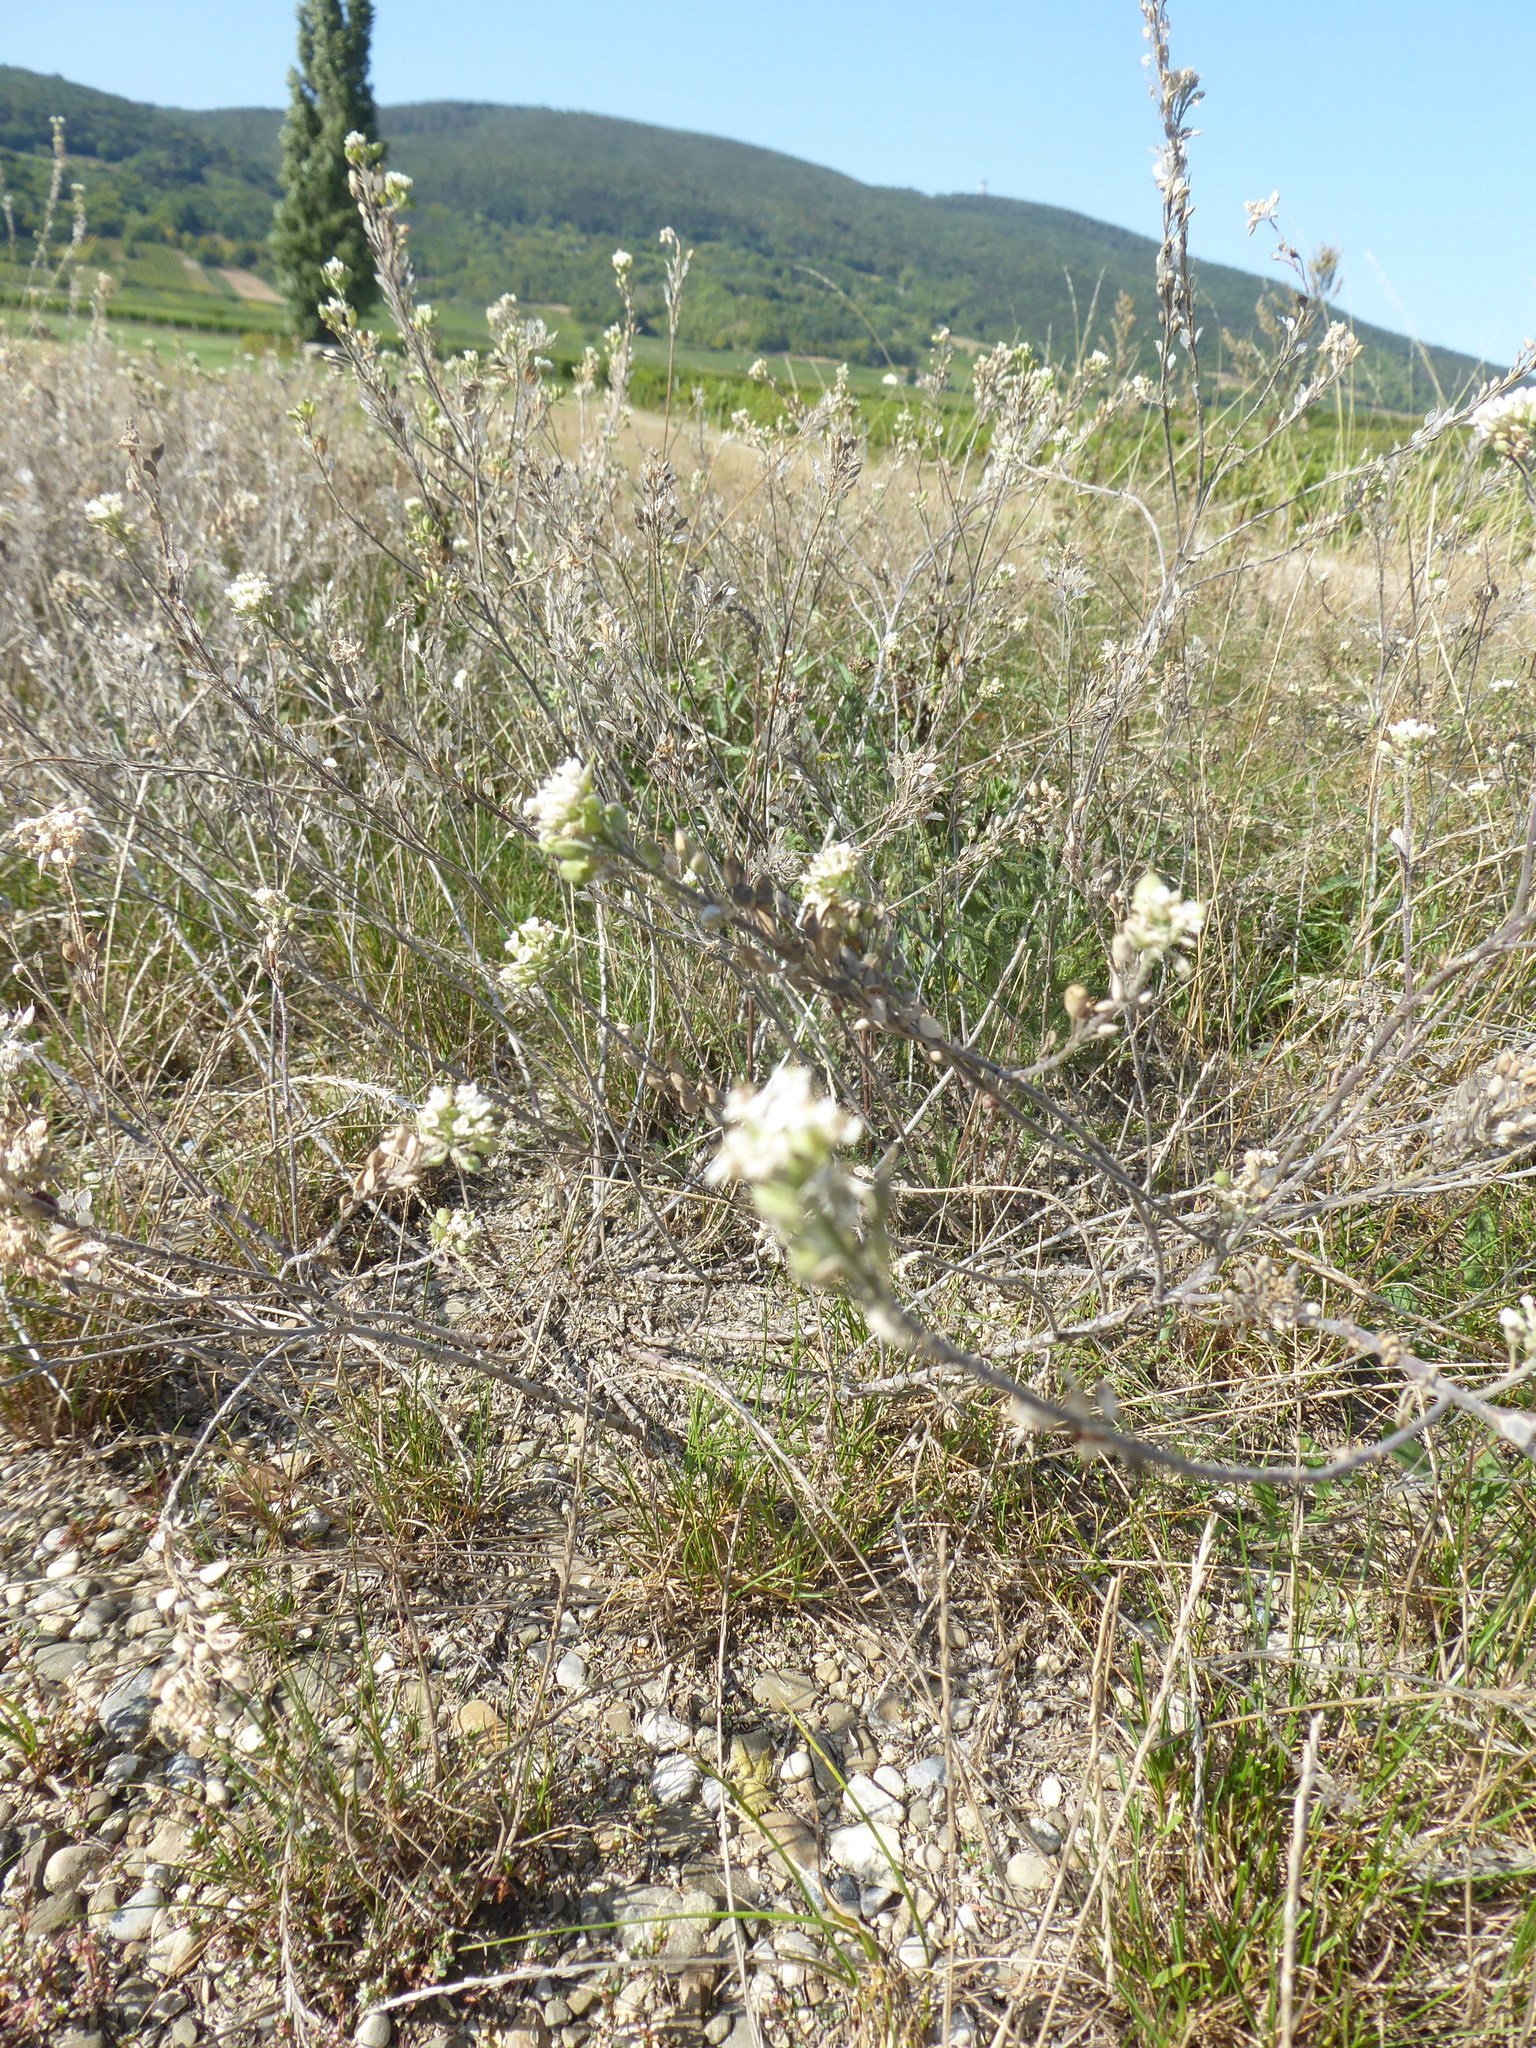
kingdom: Plantae
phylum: Tracheophyta
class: Magnoliopsida
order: Brassicales
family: Brassicaceae
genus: Berteroa
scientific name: Berteroa incana
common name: Hoary alison
